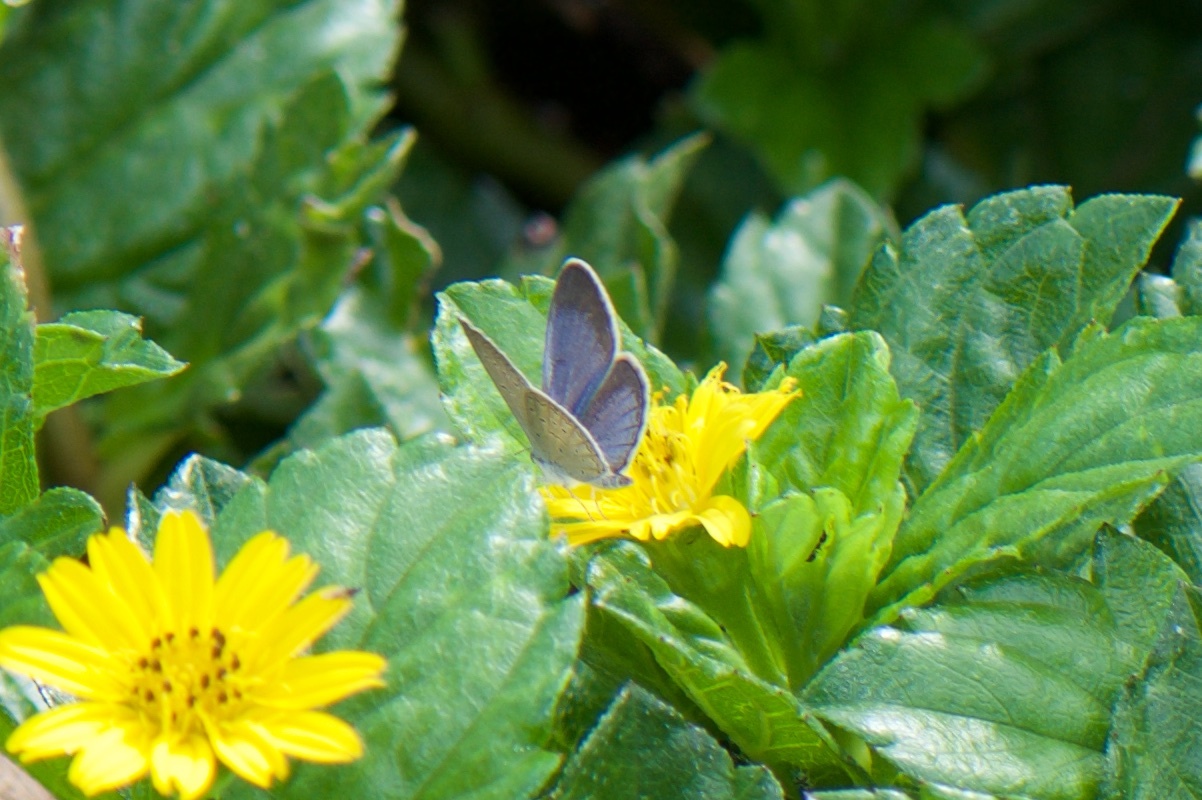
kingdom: Animalia
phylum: Arthropoda
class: Insecta
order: Lepidoptera
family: Lycaenidae
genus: Zizina
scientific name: Zizina otis
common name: Lesser grass blue
